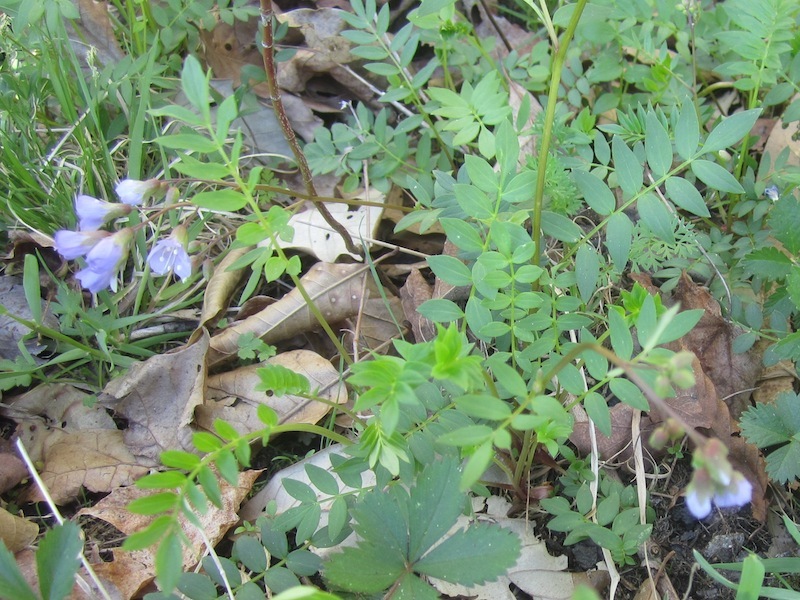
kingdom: Plantae
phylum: Tracheophyta
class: Magnoliopsida
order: Ericales
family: Polemoniaceae
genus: Polemonium
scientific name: Polemonium reptans
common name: Creeping jacob's-ladder
